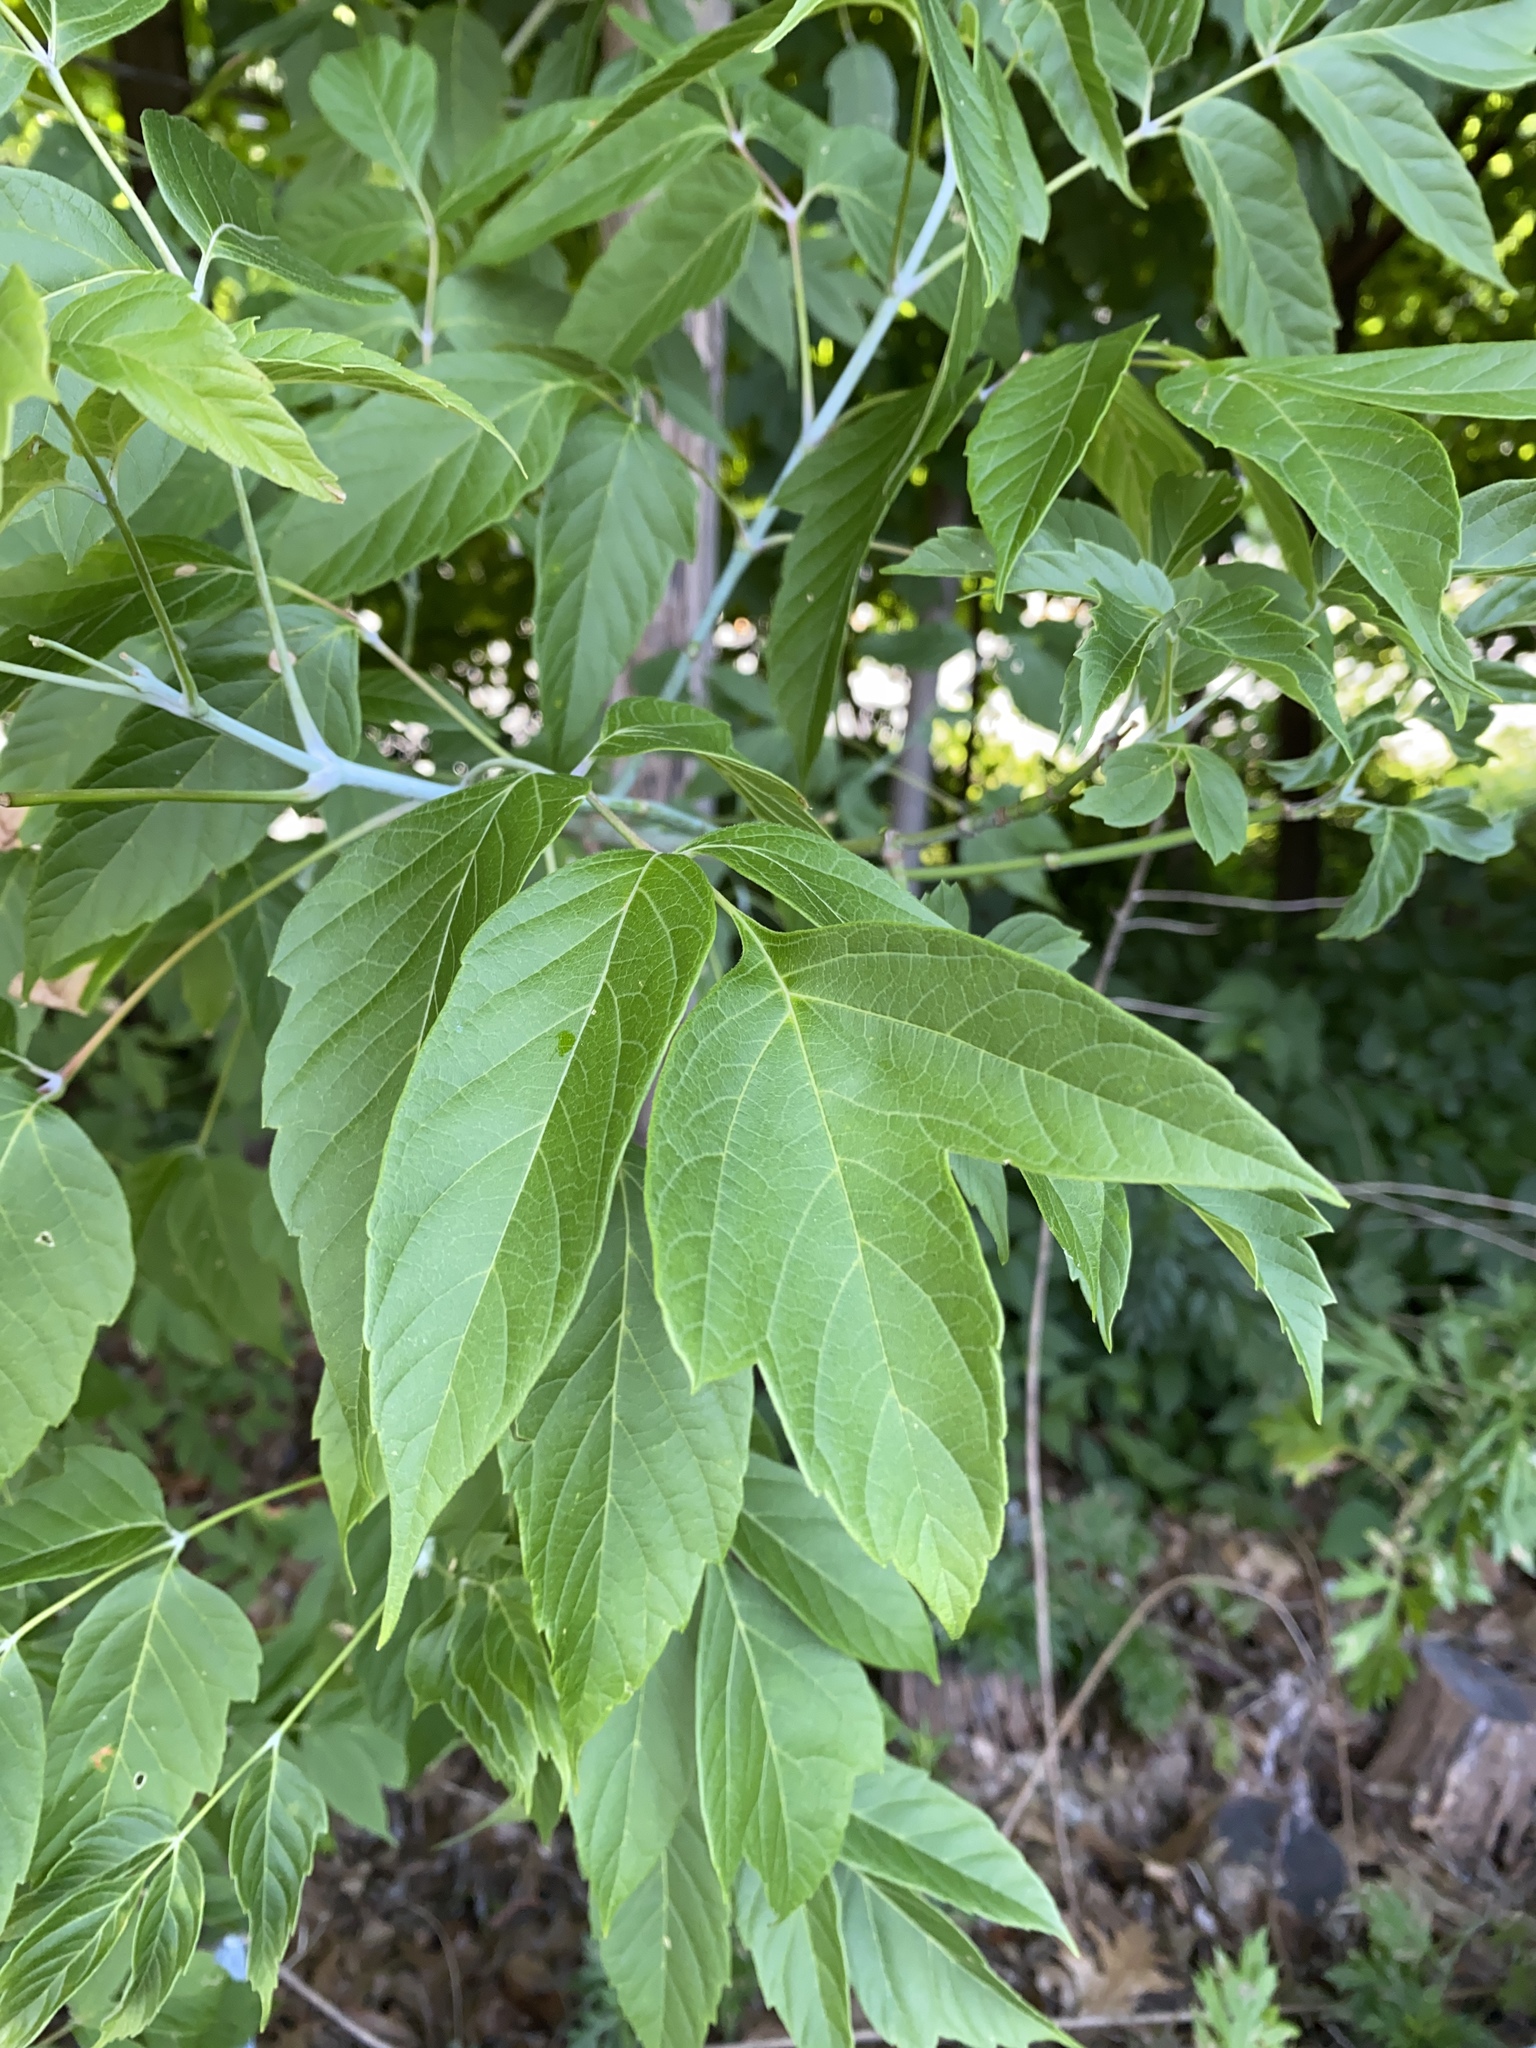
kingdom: Plantae
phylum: Tracheophyta
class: Magnoliopsida
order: Sapindales
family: Sapindaceae
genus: Acer
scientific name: Acer negundo
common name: Ashleaf maple
